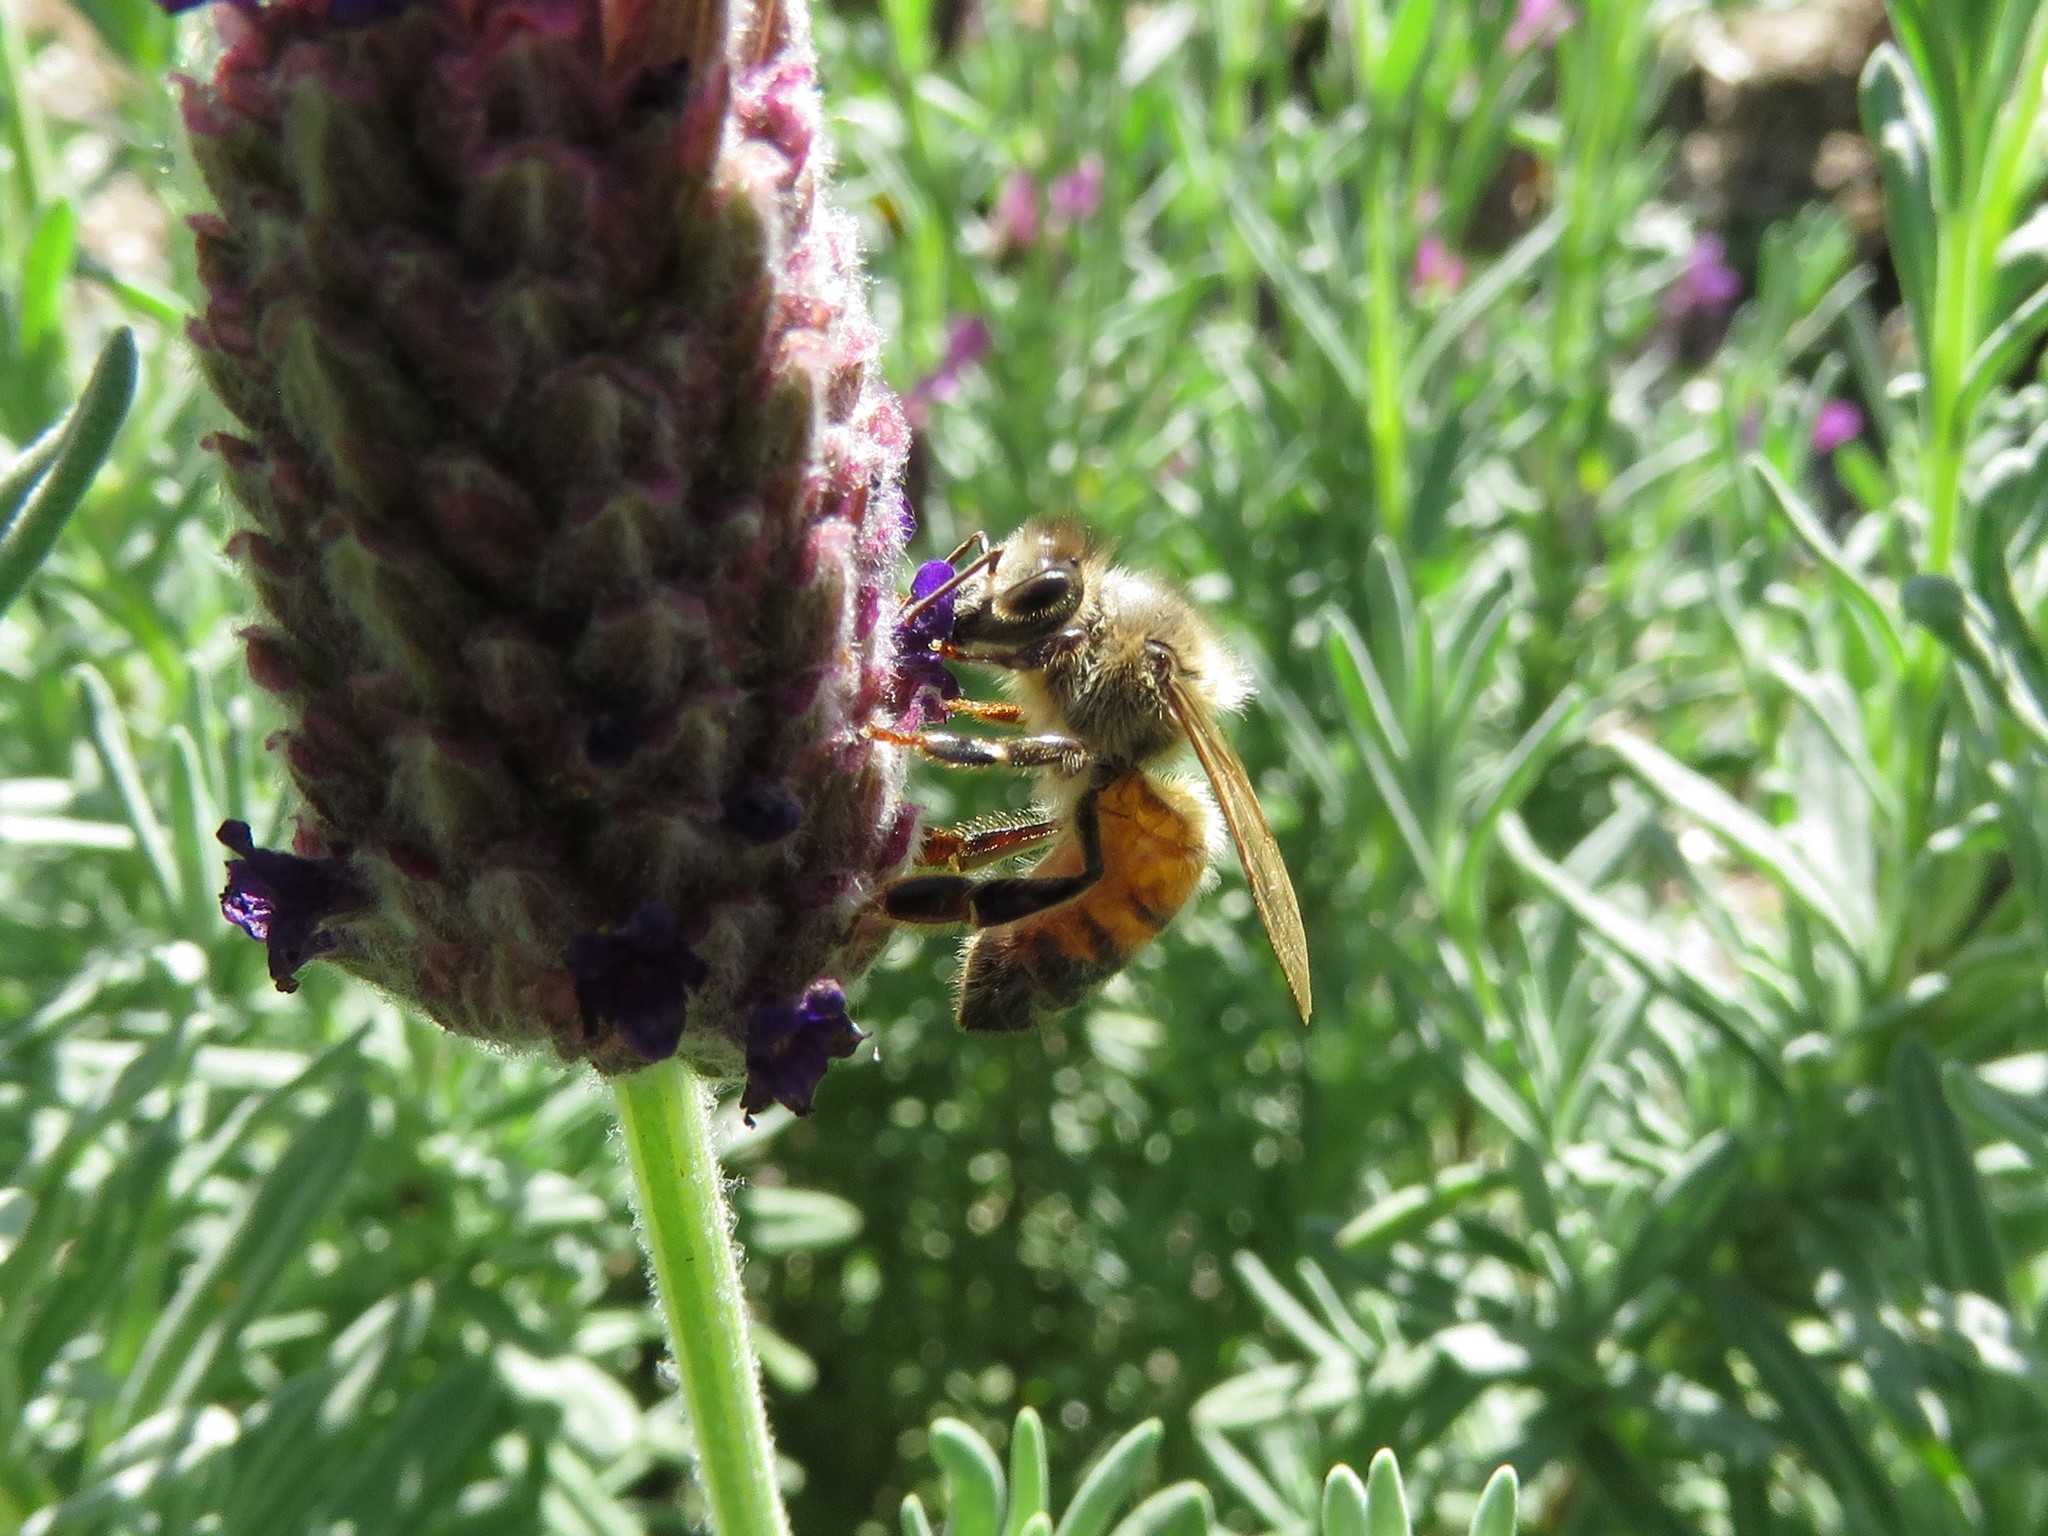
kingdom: Animalia
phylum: Arthropoda
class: Insecta
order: Hymenoptera
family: Apidae
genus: Apis
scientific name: Apis mellifera
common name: Honey bee
